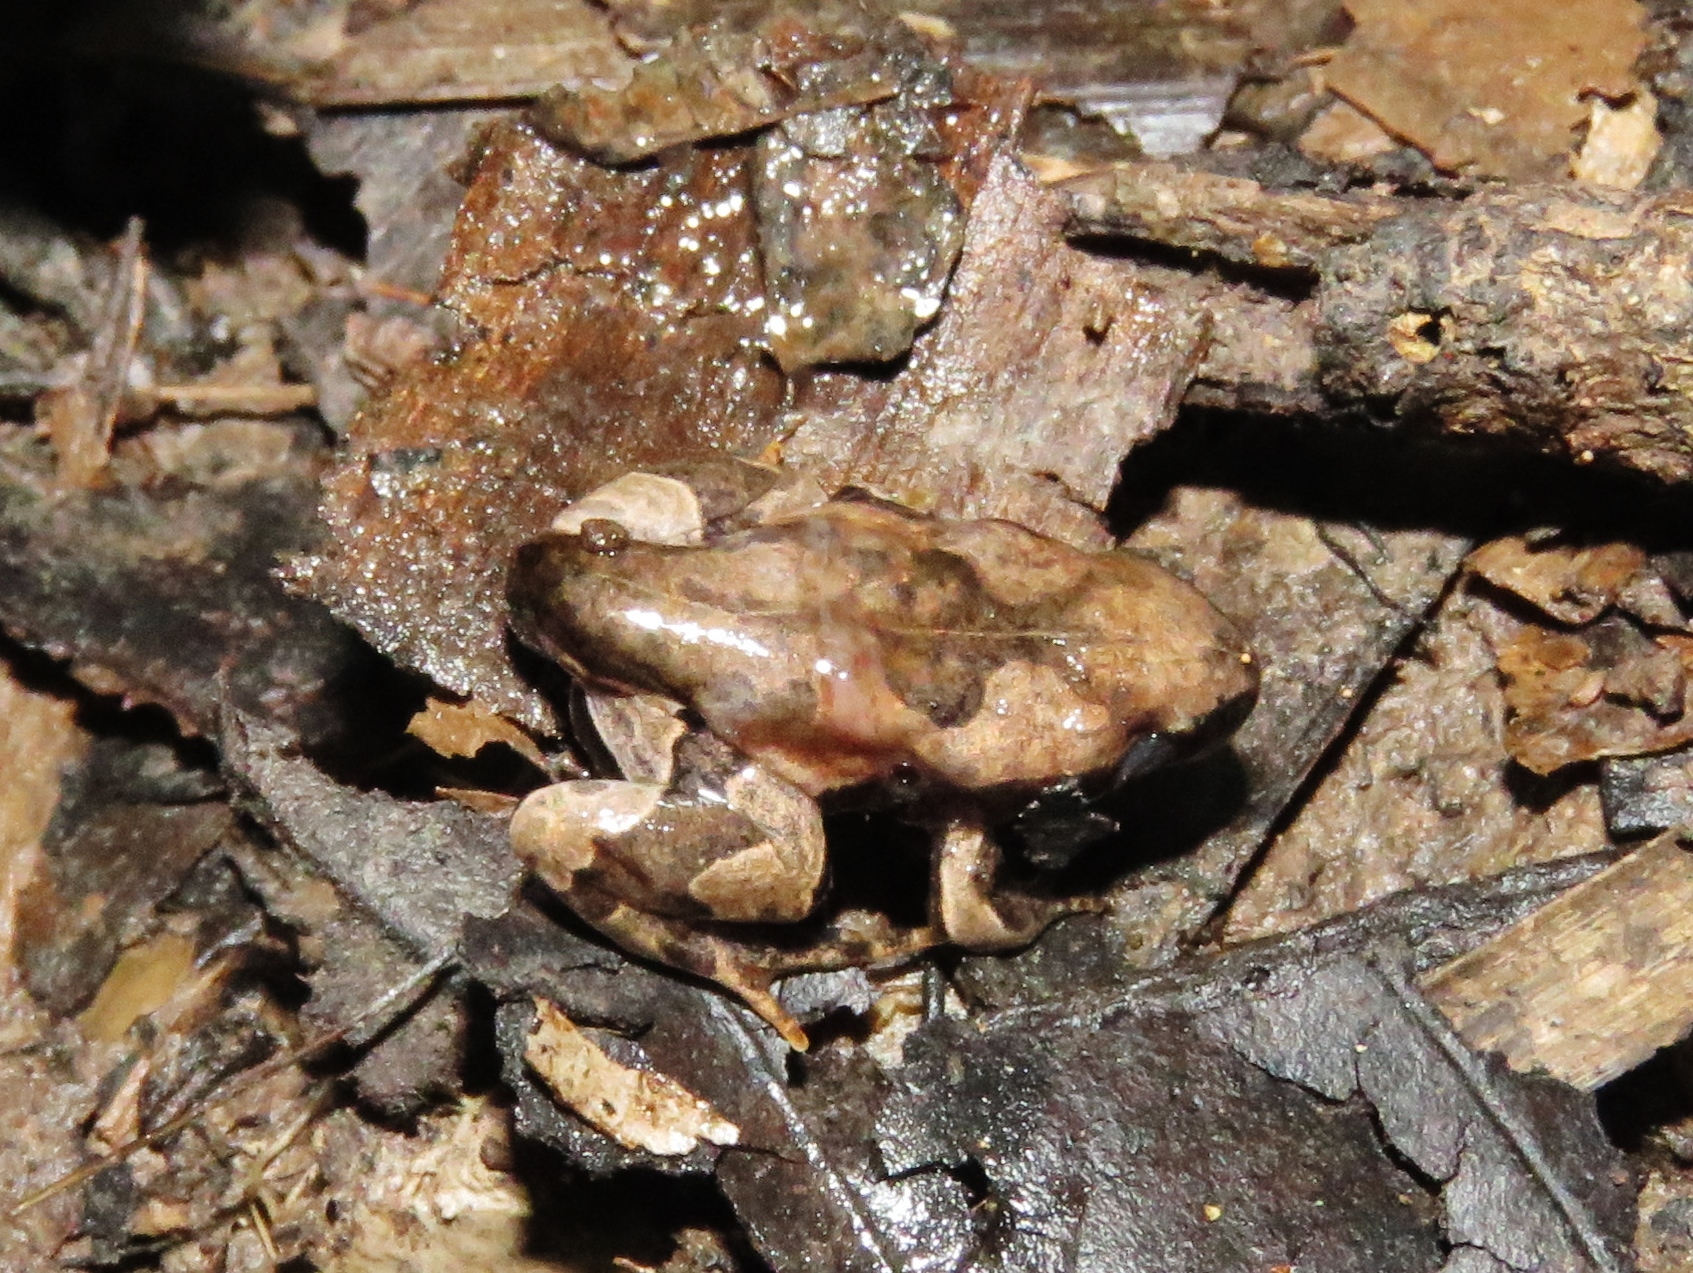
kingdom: Animalia
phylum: Chordata
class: Amphibia
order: Anura
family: Bufonidae
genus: Rhinella
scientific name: Rhinella margaritifera
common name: Mitred toad
